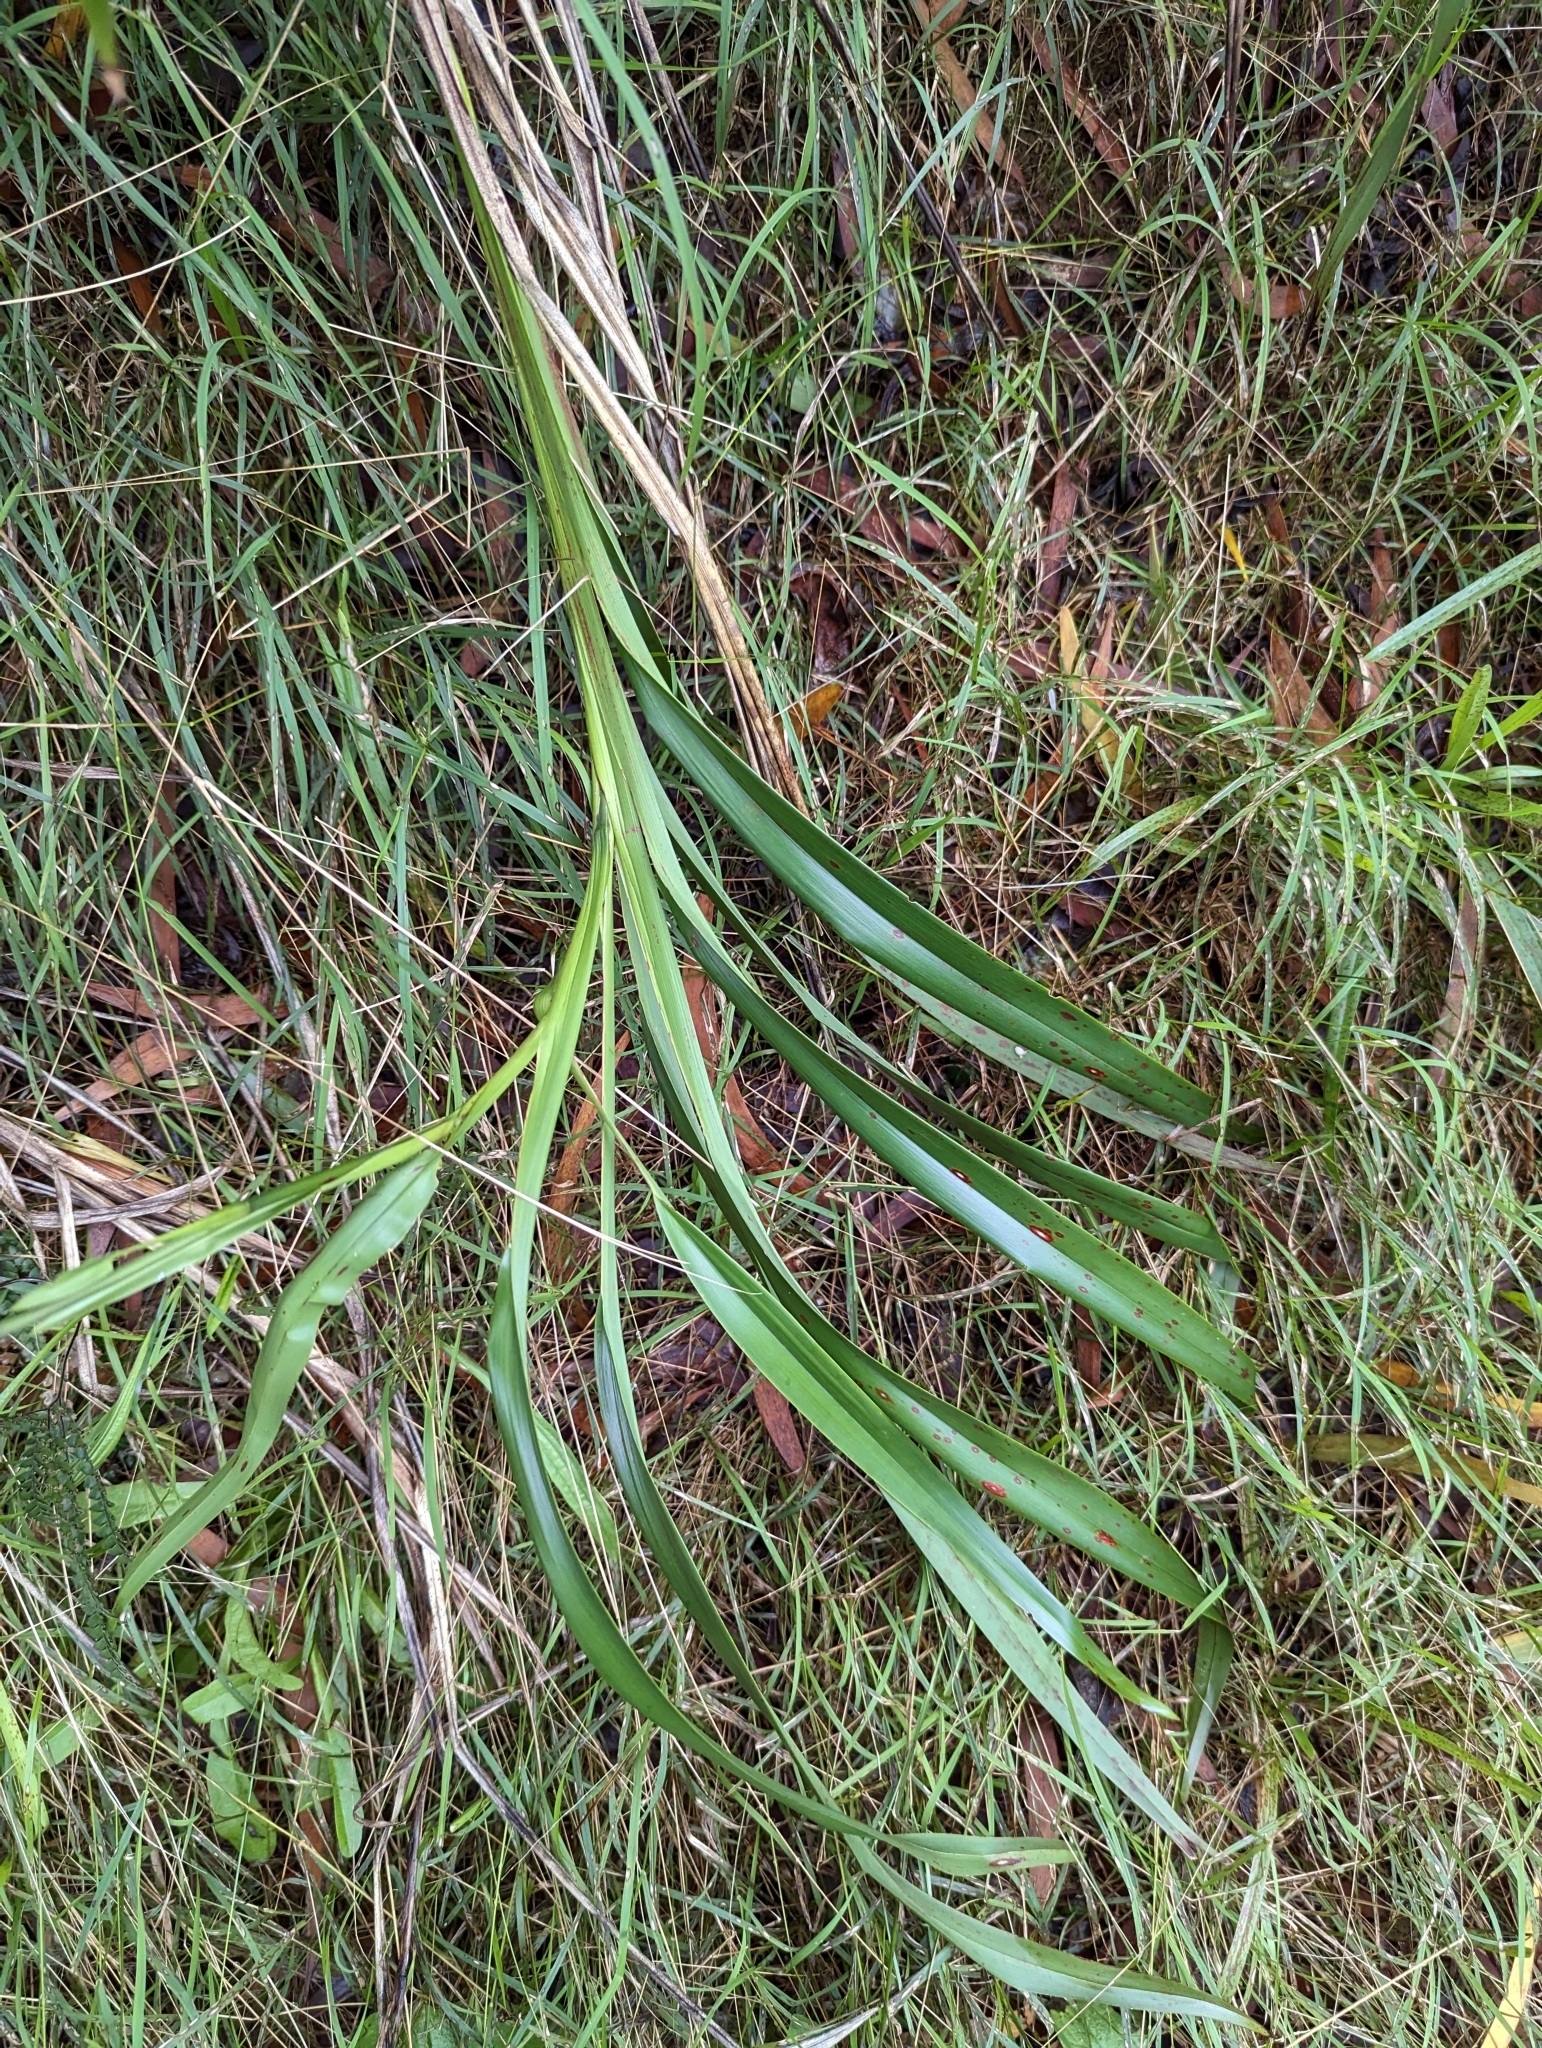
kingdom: Plantae
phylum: Tracheophyta
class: Liliopsida
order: Asparagales
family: Asphodelaceae
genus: Dianella
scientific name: Dianella sandwicensis
